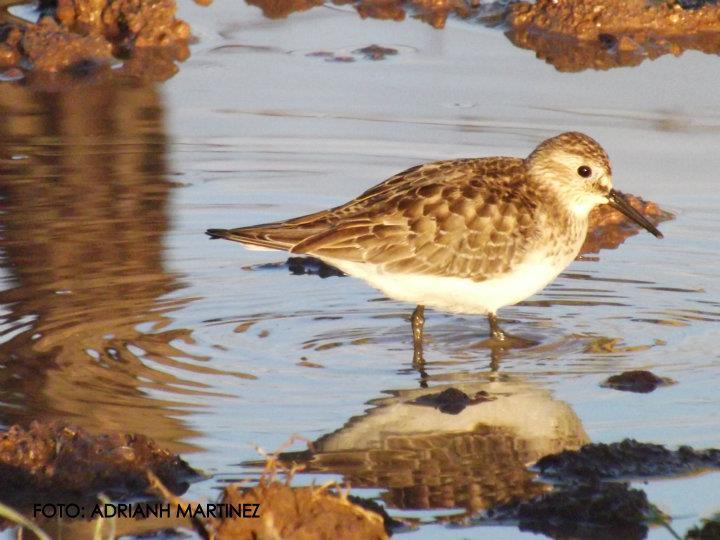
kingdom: Animalia
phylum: Chordata
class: Aves
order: Charadriiformes
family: Scolopacidae
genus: Calidris
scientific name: Calidris minutilla
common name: Least sandpiper
